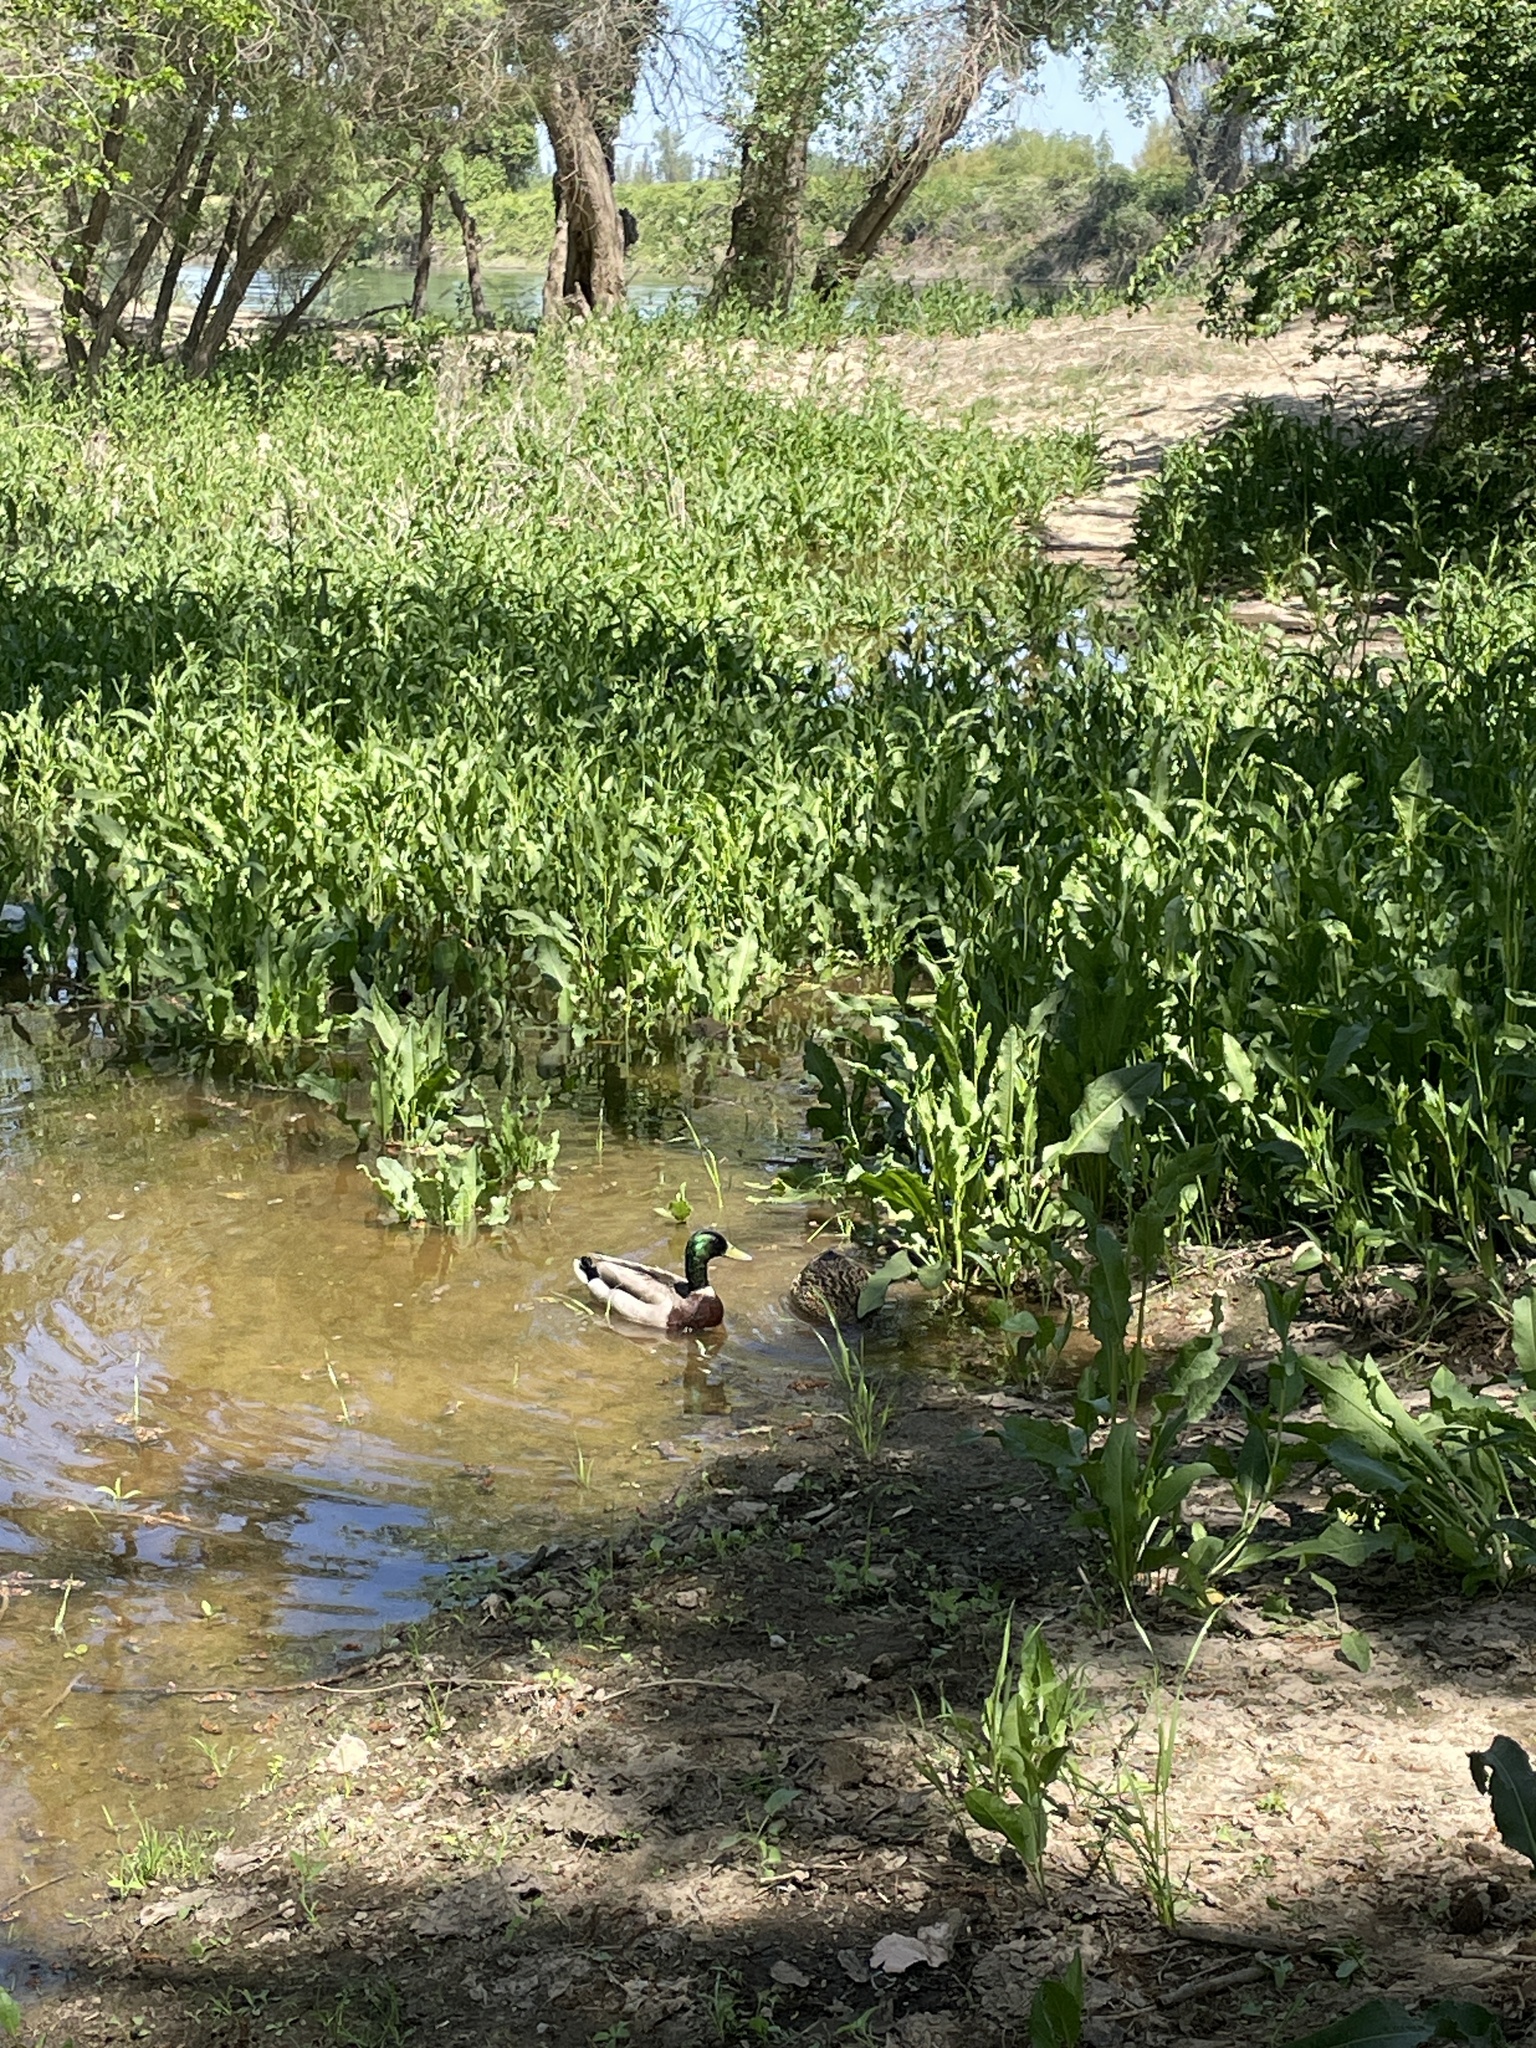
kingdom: Animalia
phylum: Chordata
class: Aves
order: Anseriformes
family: Anatidae
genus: Anas
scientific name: Anas platyrhynchos
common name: Mallard
